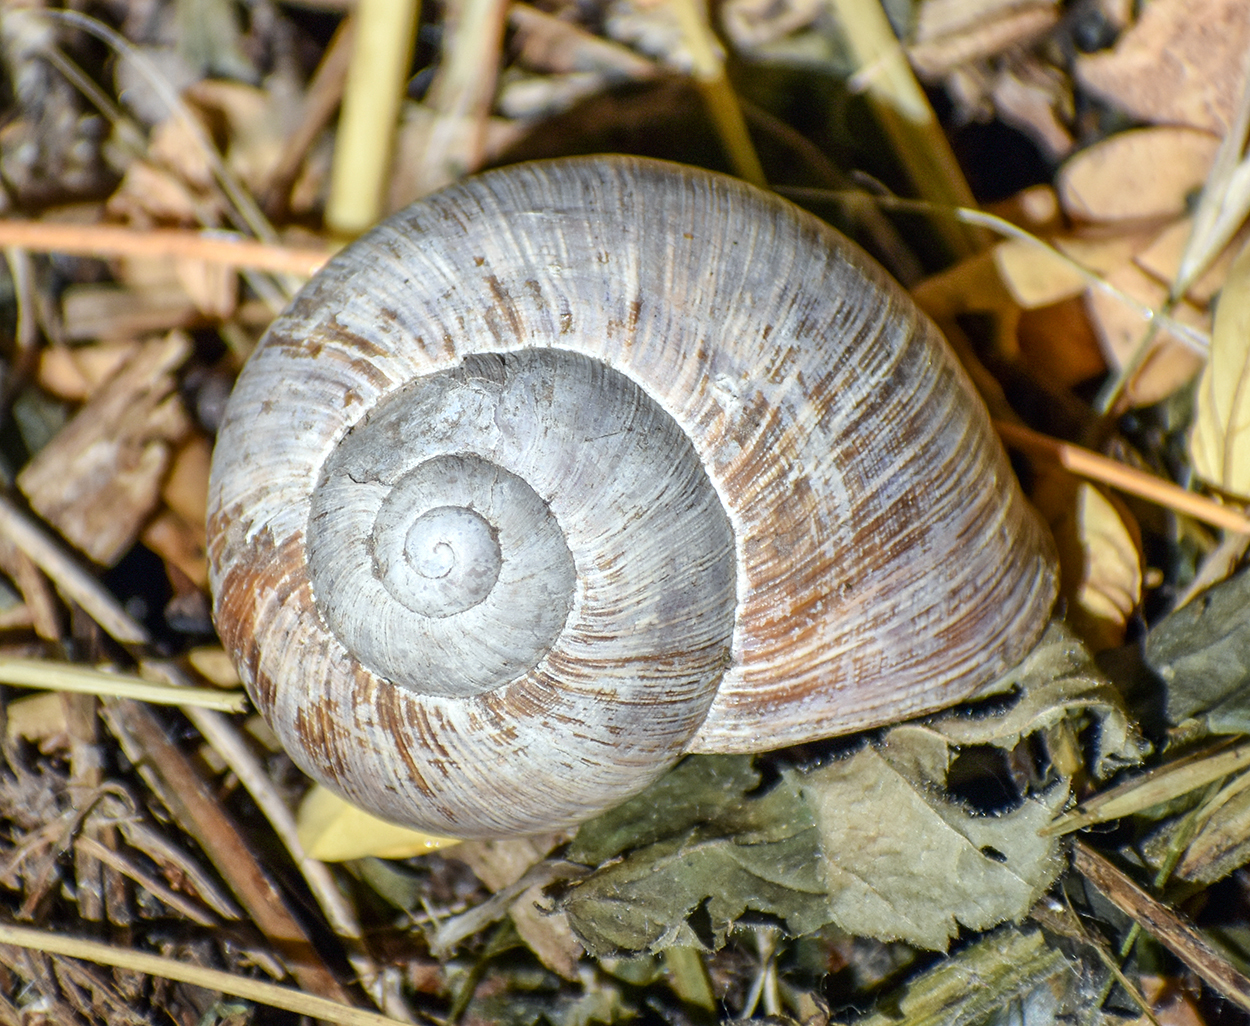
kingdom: Animalia
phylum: Mollusca
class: Gastropoda
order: Stylommatophora
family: Helicidae
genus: Helix
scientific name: Helix pomatia
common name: Roman snail
